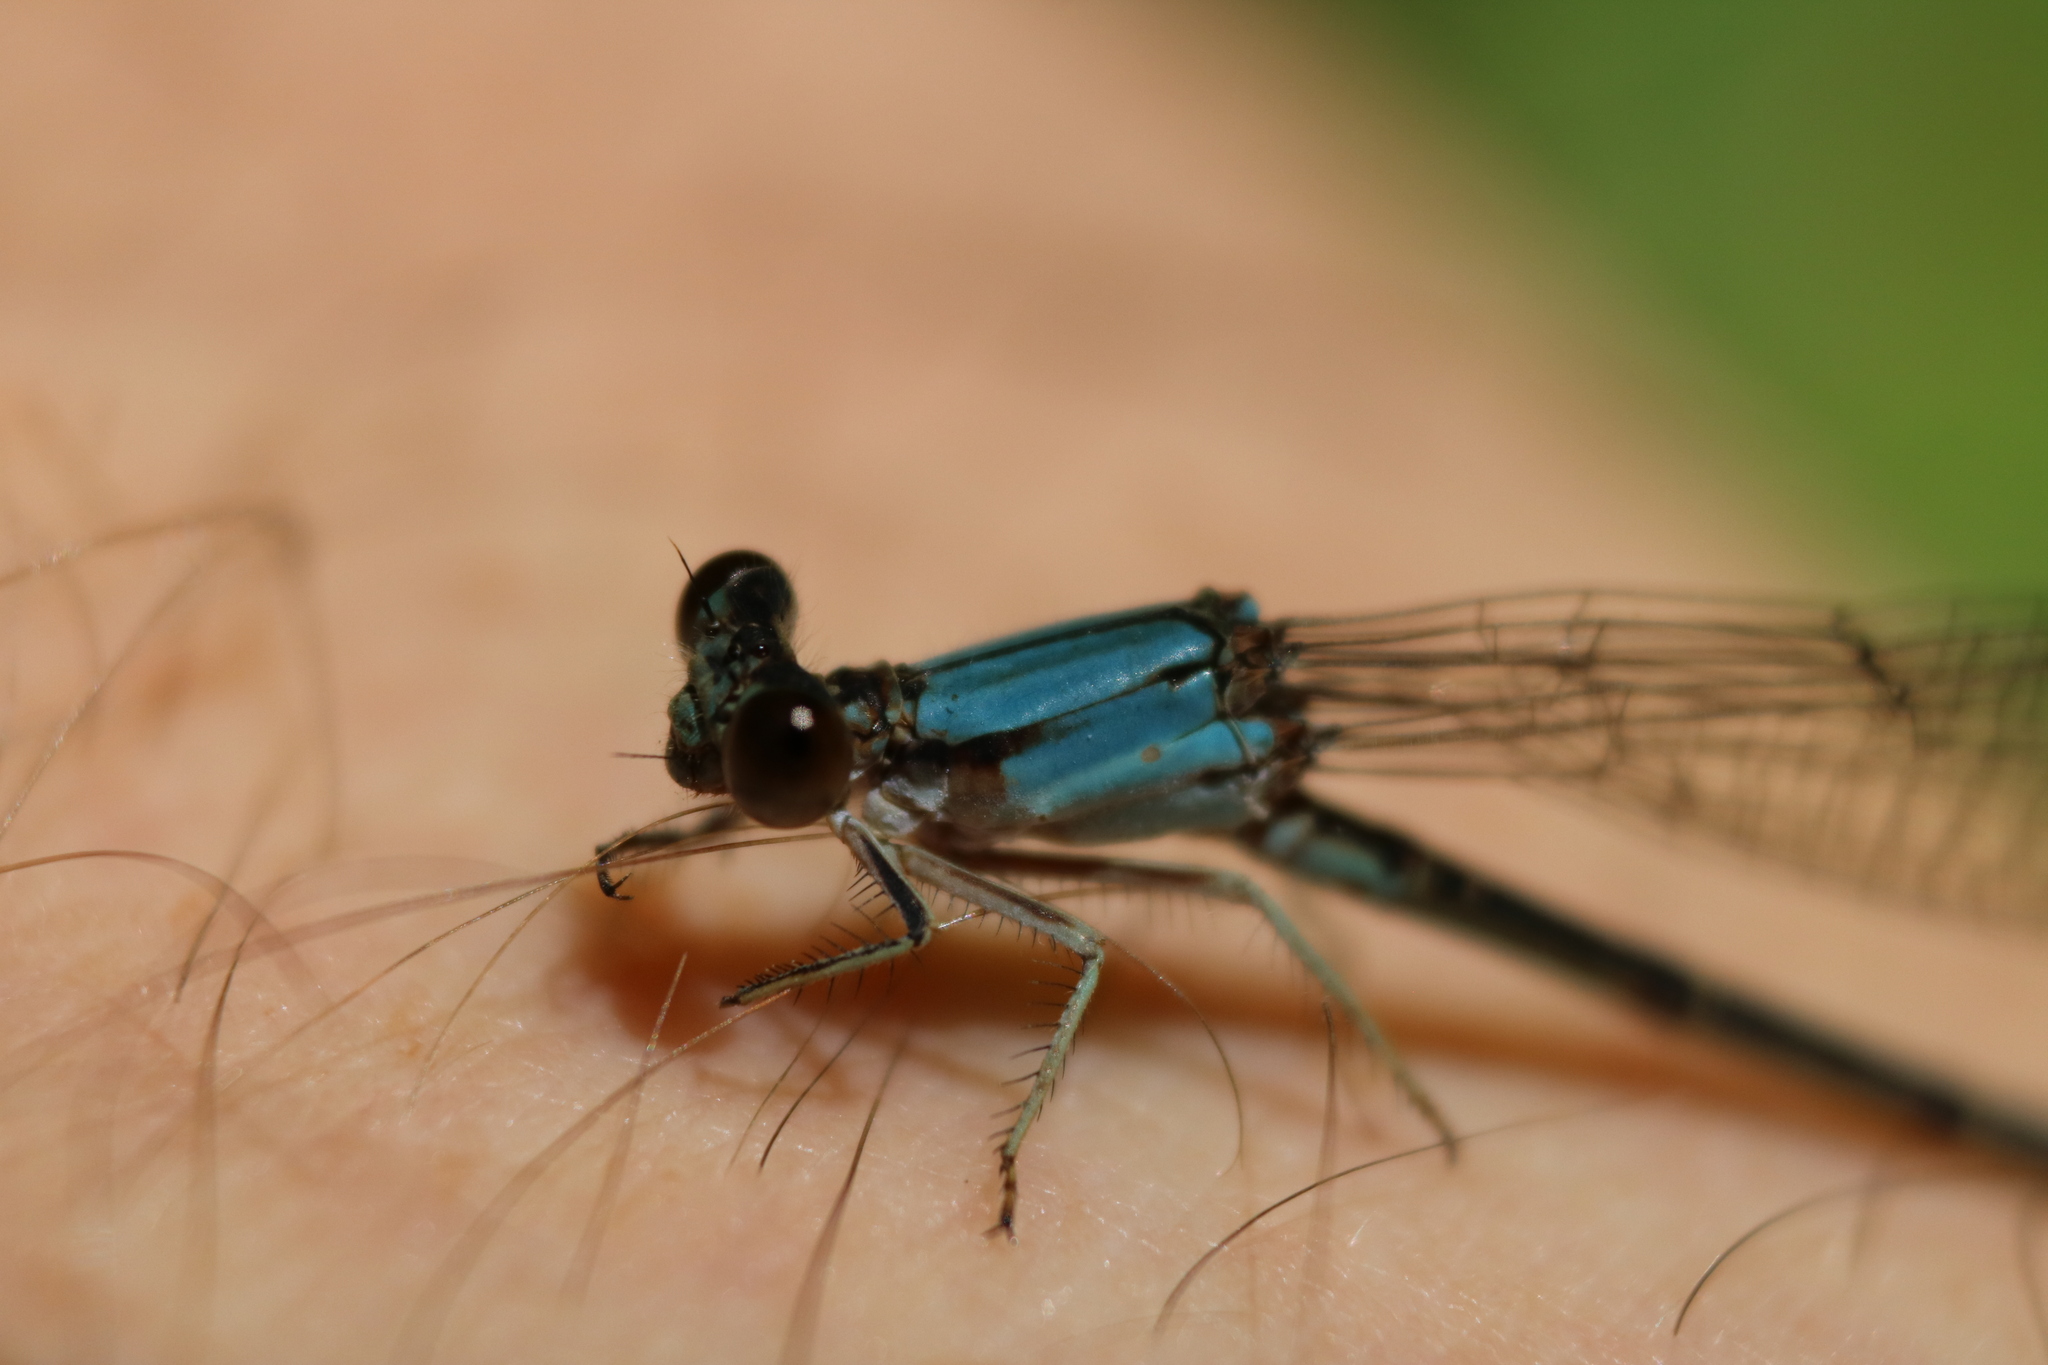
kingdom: Animalia
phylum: Arthropoda
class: Insecta
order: Odonata
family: Coenagrionidae
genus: Argia
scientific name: Argia apicalis
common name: Blue-fronted dancer
